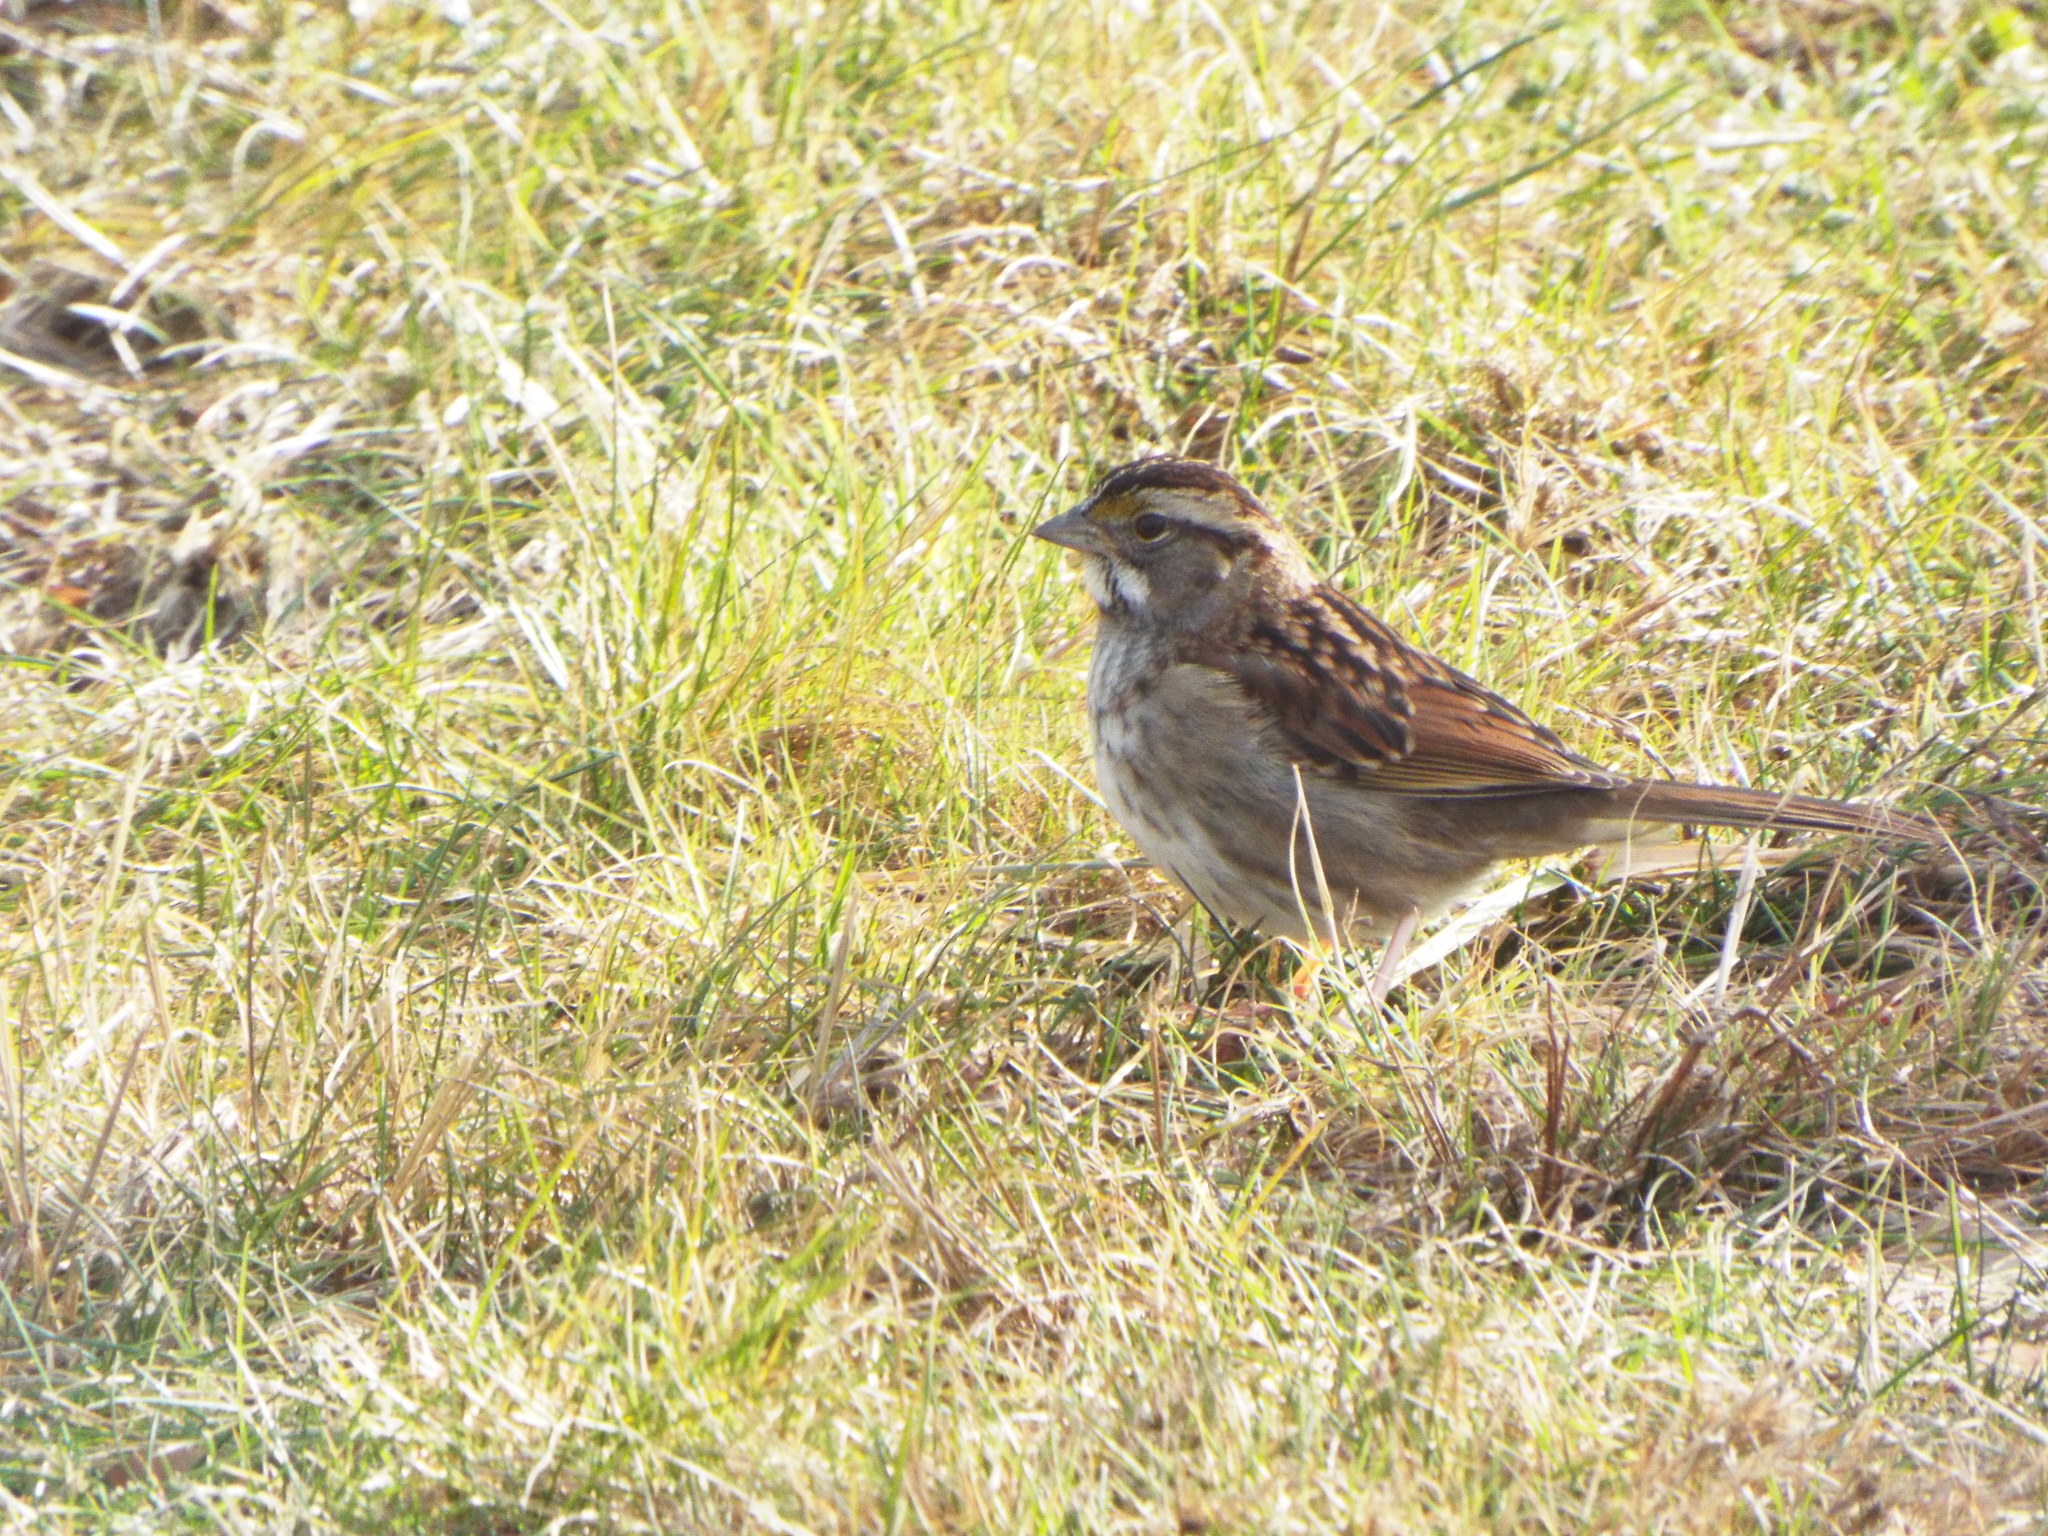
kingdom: Animalia
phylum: Chordata
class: Aves
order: Passeriformes
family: Passerellidae
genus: Zonotrichia
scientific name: Zonotrichia albicollis
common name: White-throated sparrow
